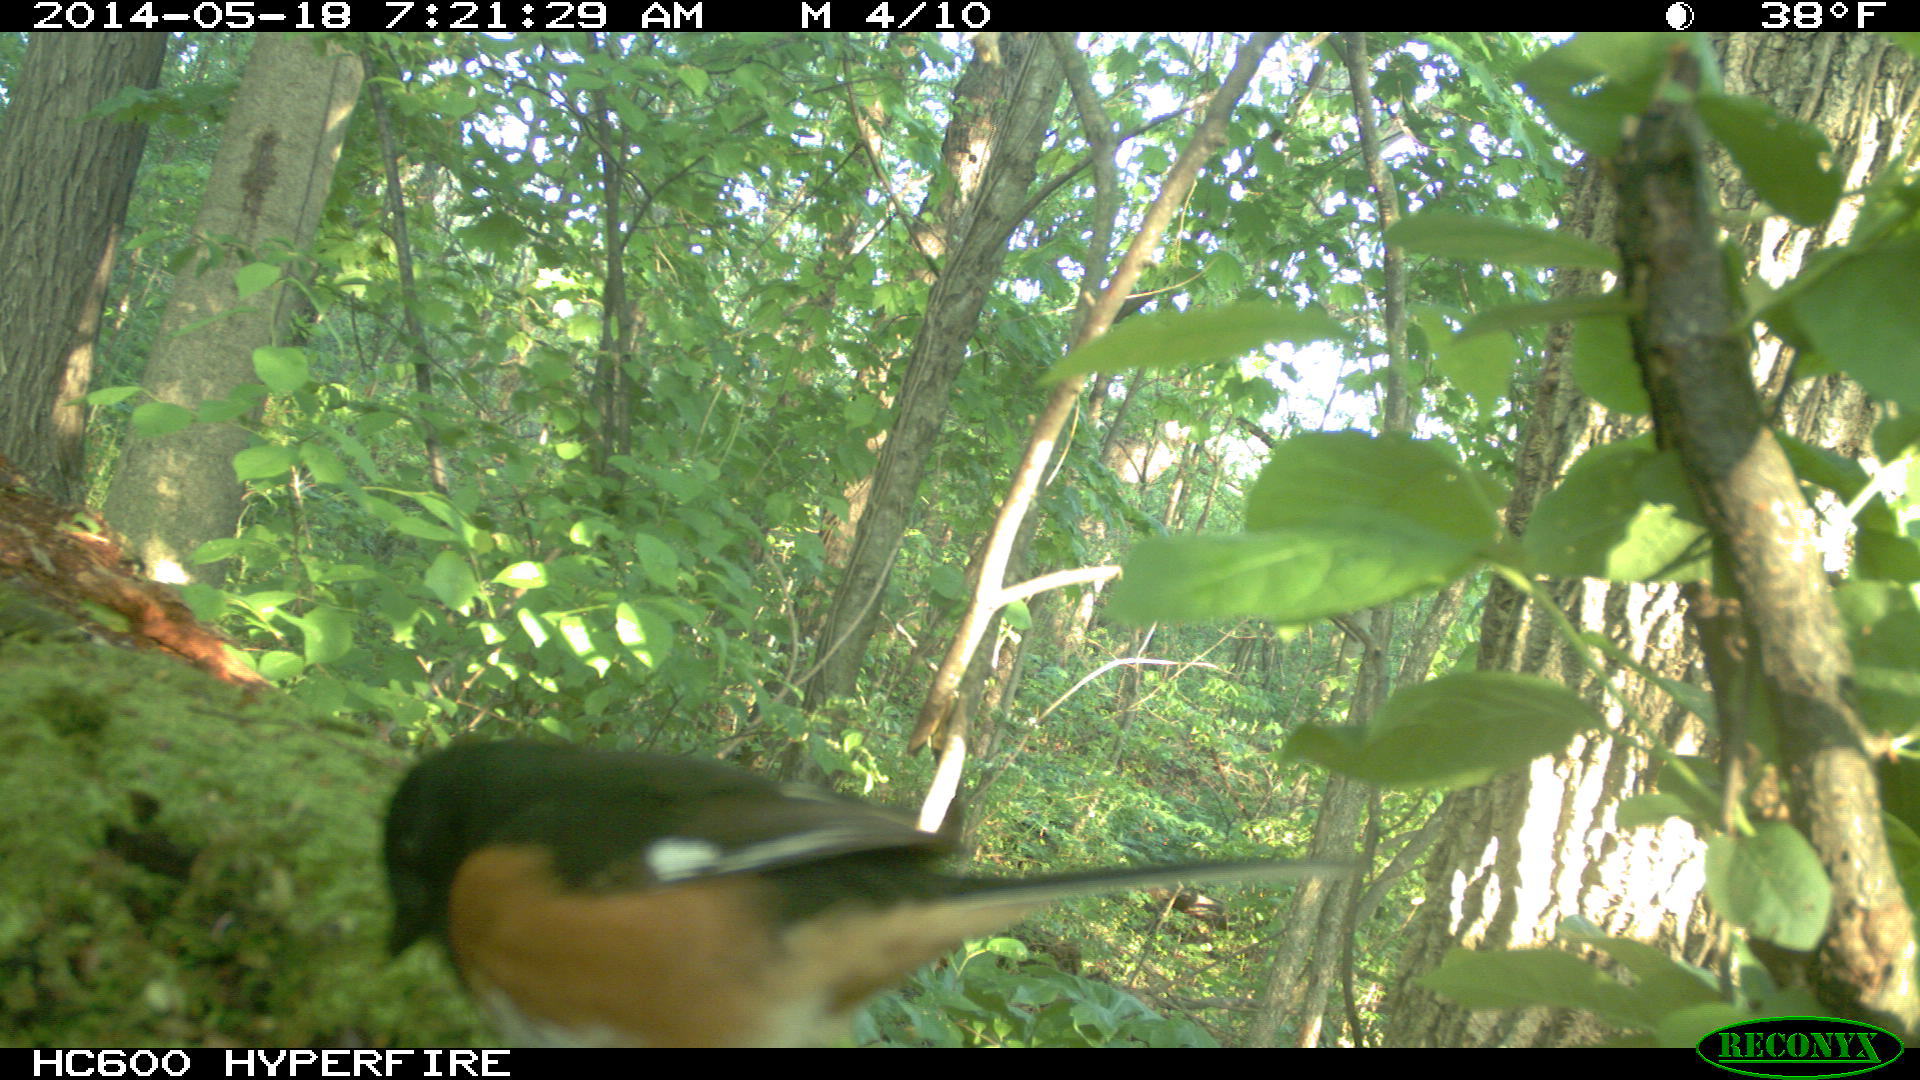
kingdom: Animalia
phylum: Chordata
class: Aves
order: Passeriformes
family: Passerellidae
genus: Pipilo
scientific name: Pipilo erythrophthalmus
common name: Eastern towhee
